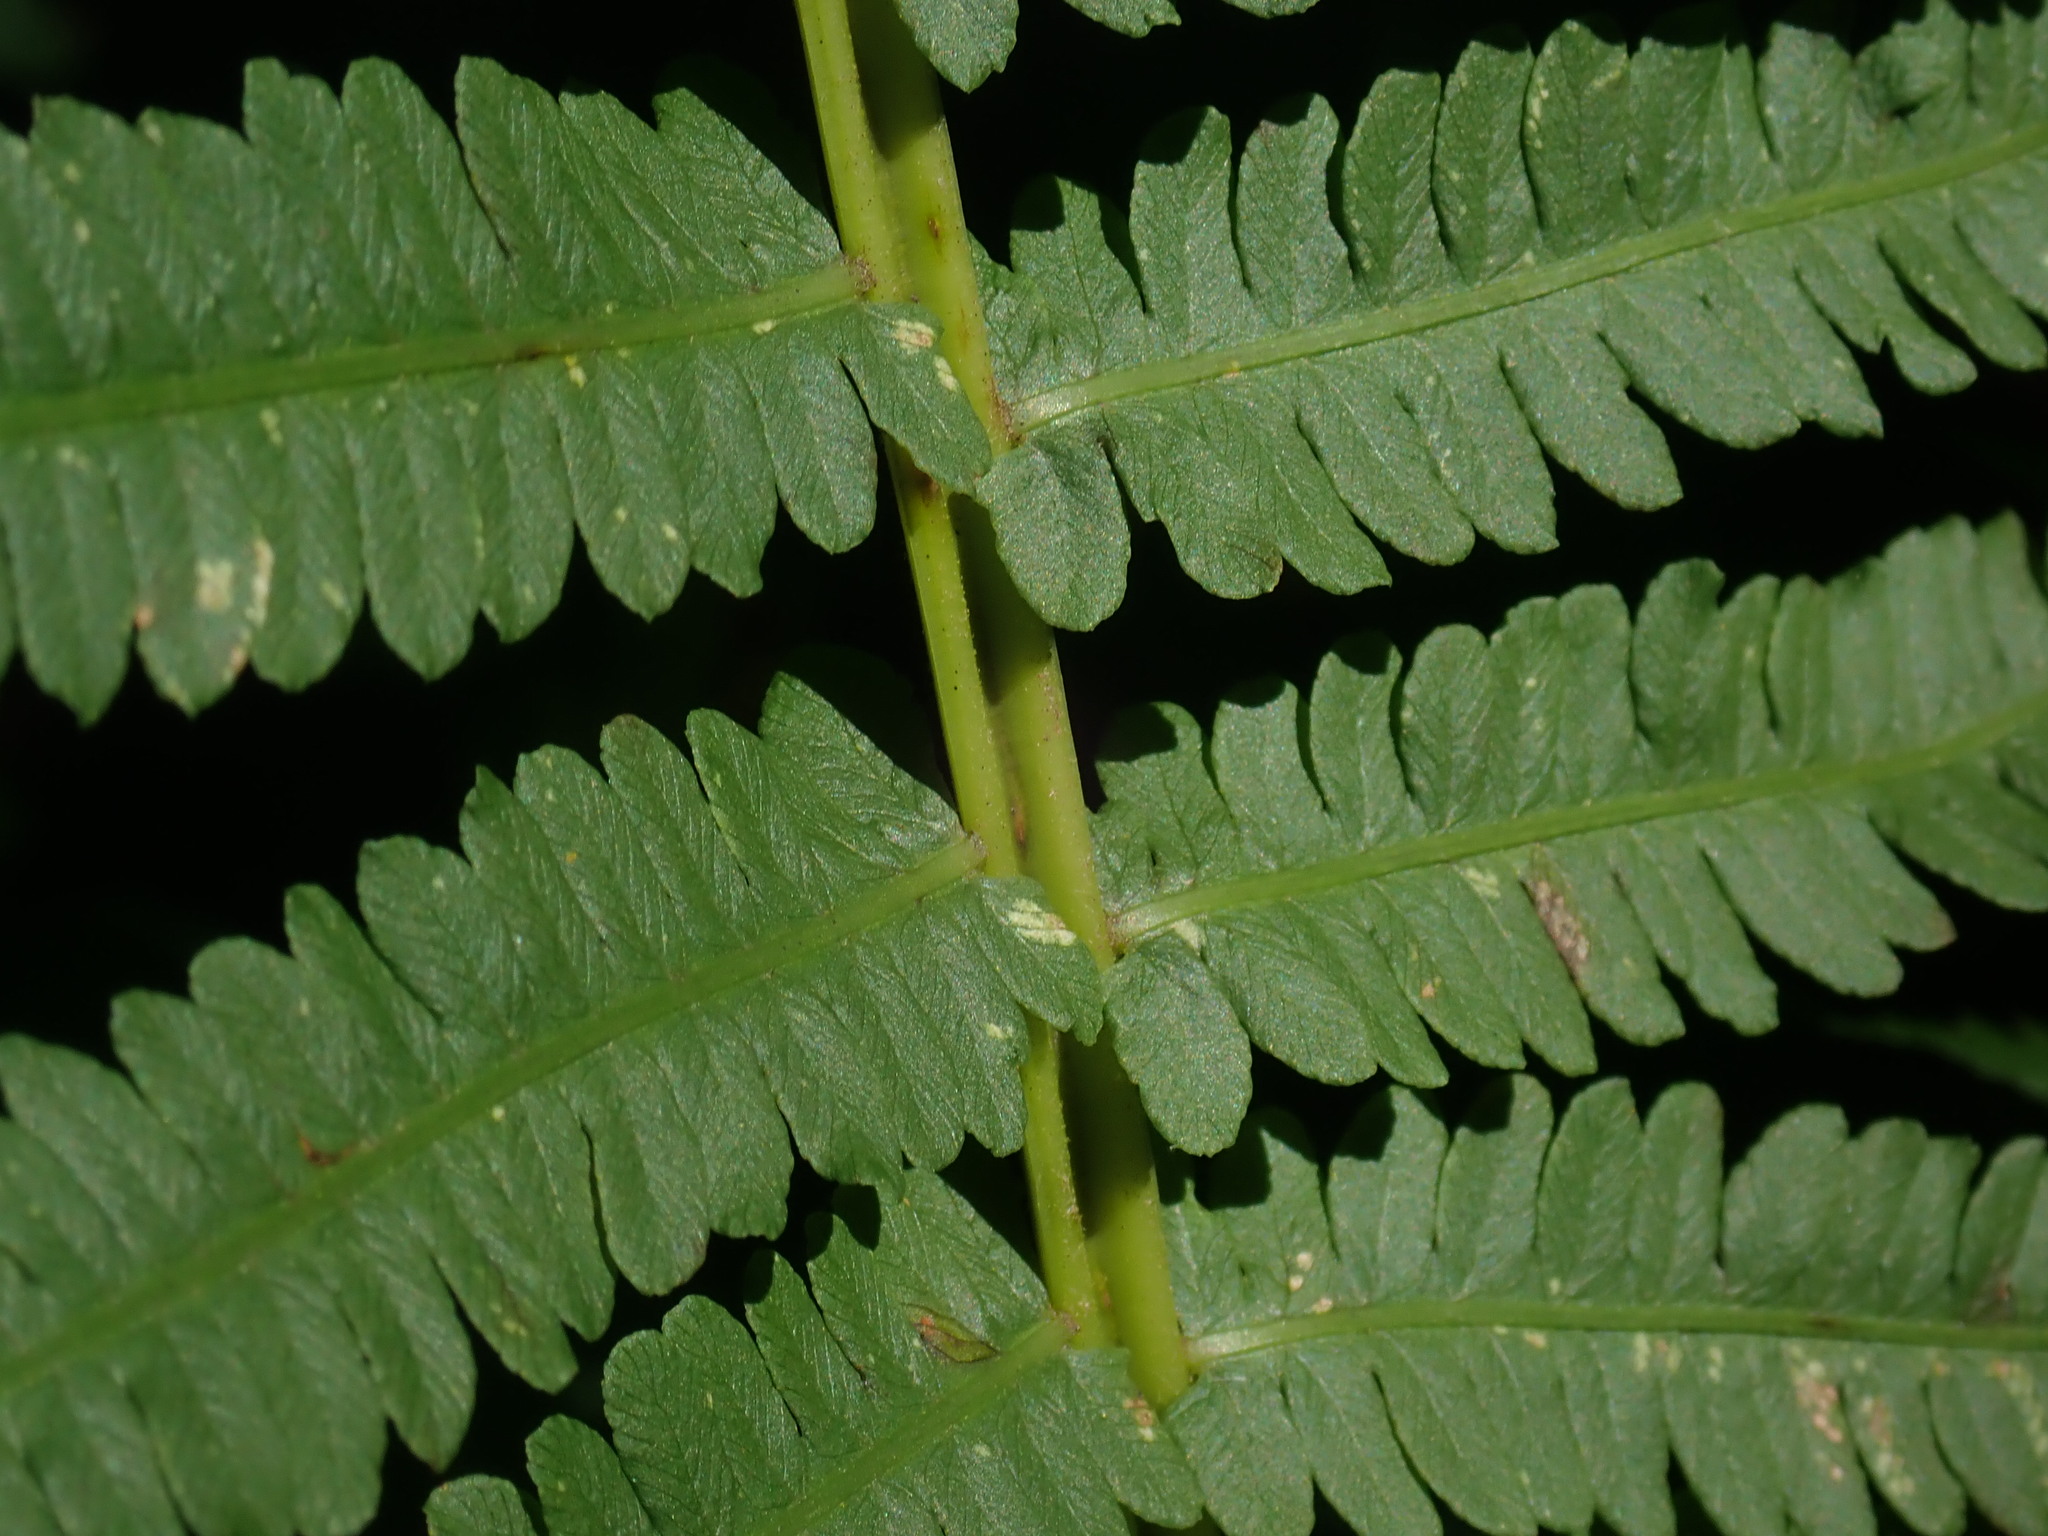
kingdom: Plantae
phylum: Tracheophyta
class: Polypodiopsida
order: Polypodiales
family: Onocleaceae
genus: Matteuccia
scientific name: Matteuccia struthiopteris
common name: Ostrich fern
